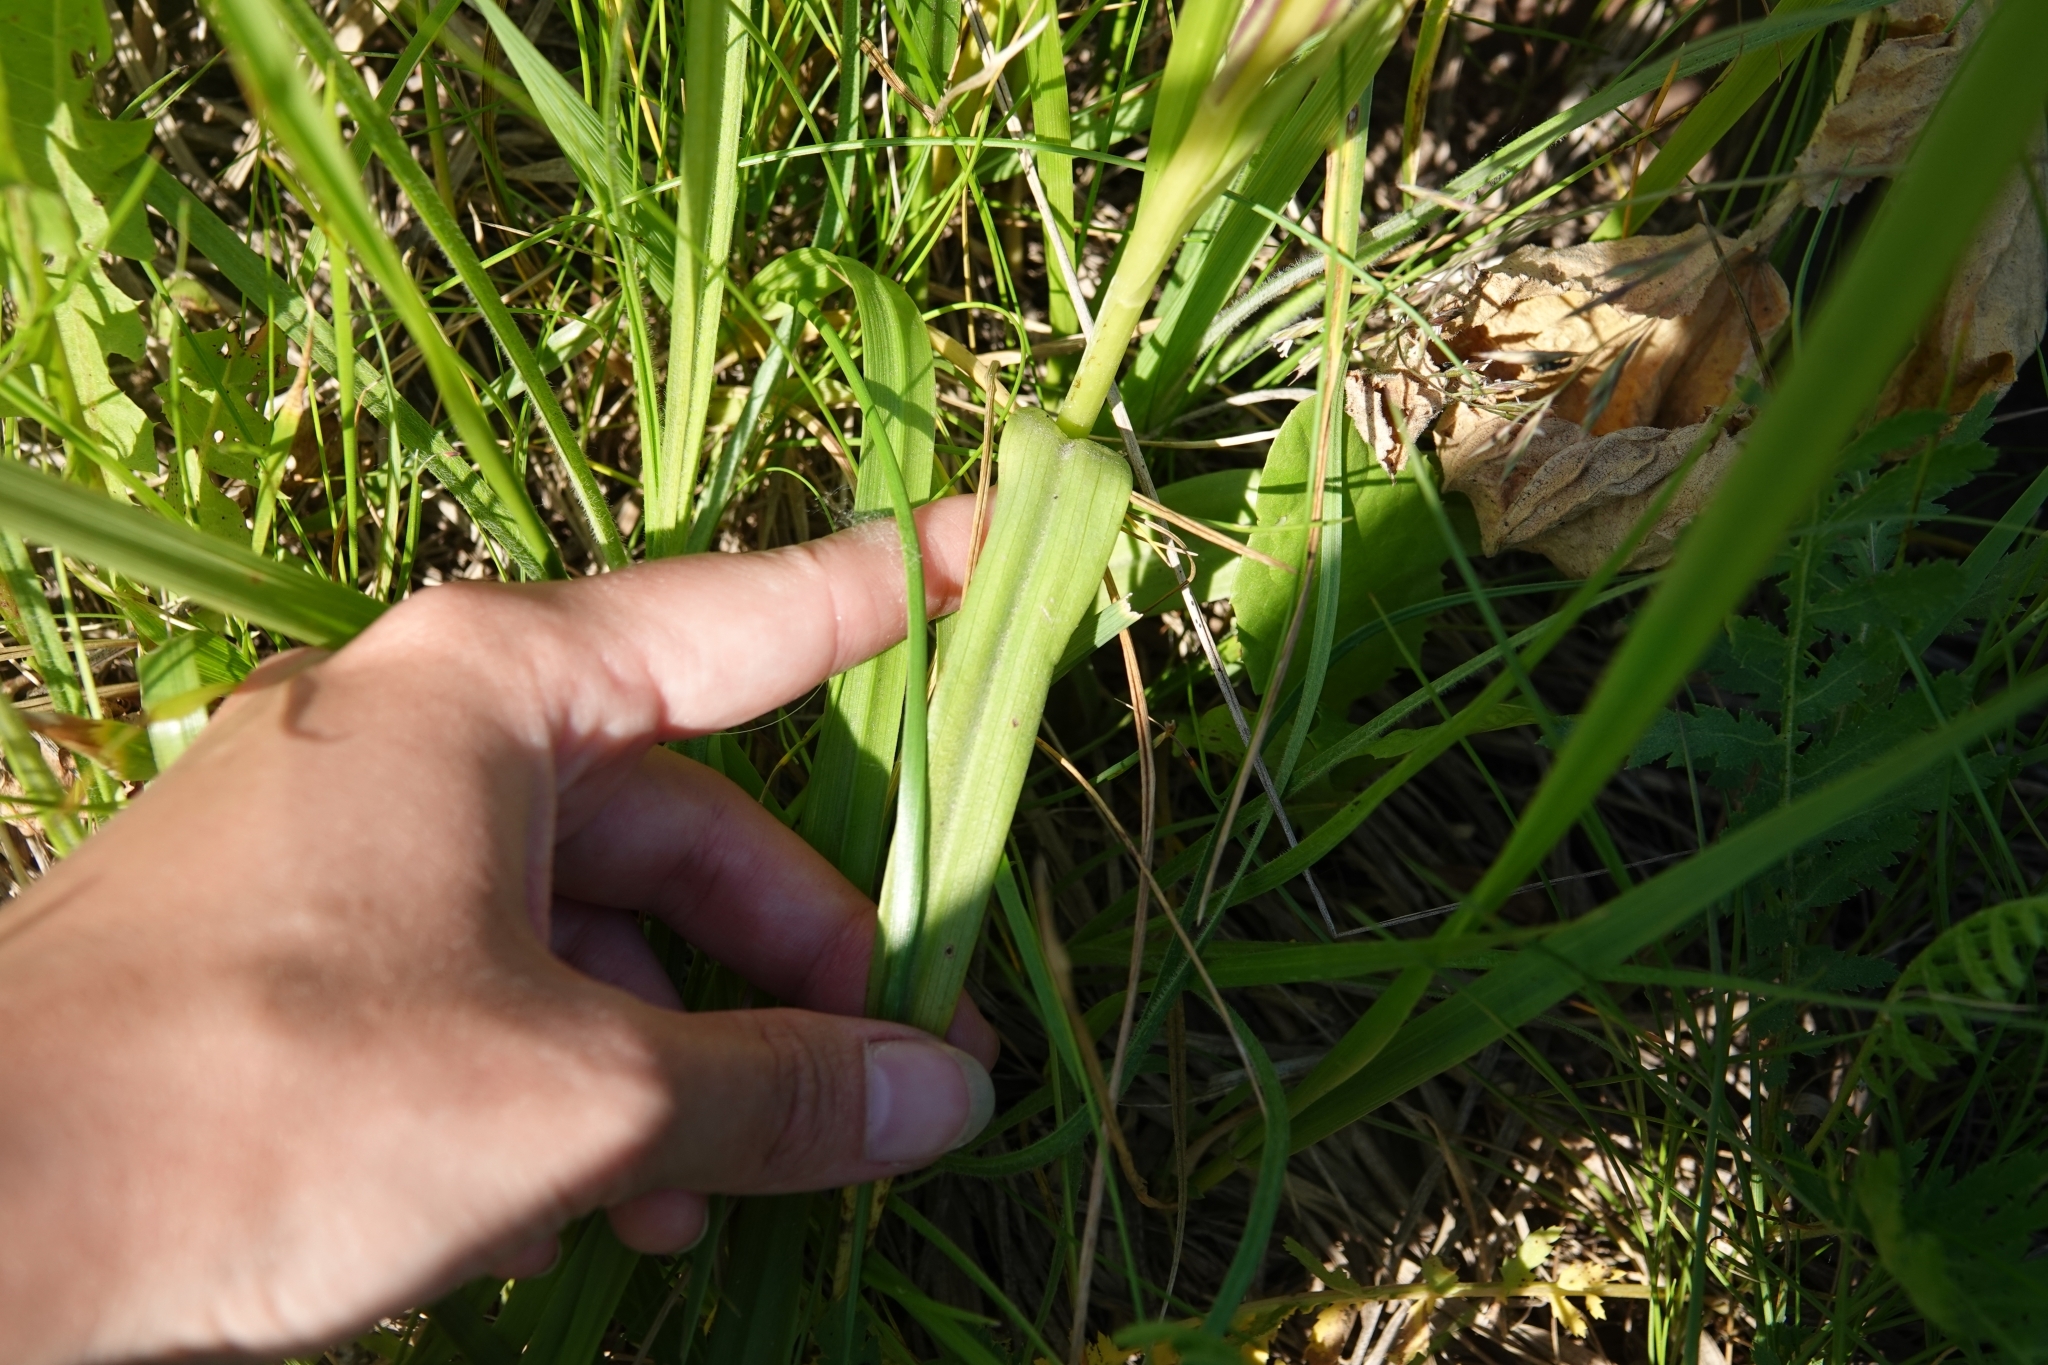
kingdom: Plantae
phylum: Tracheophyta
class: Liliopsida
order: Asparagales
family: Orchidaceae
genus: Dactylorhiza
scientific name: Dactylorhiza incarnata
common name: Early marsh-orchid
